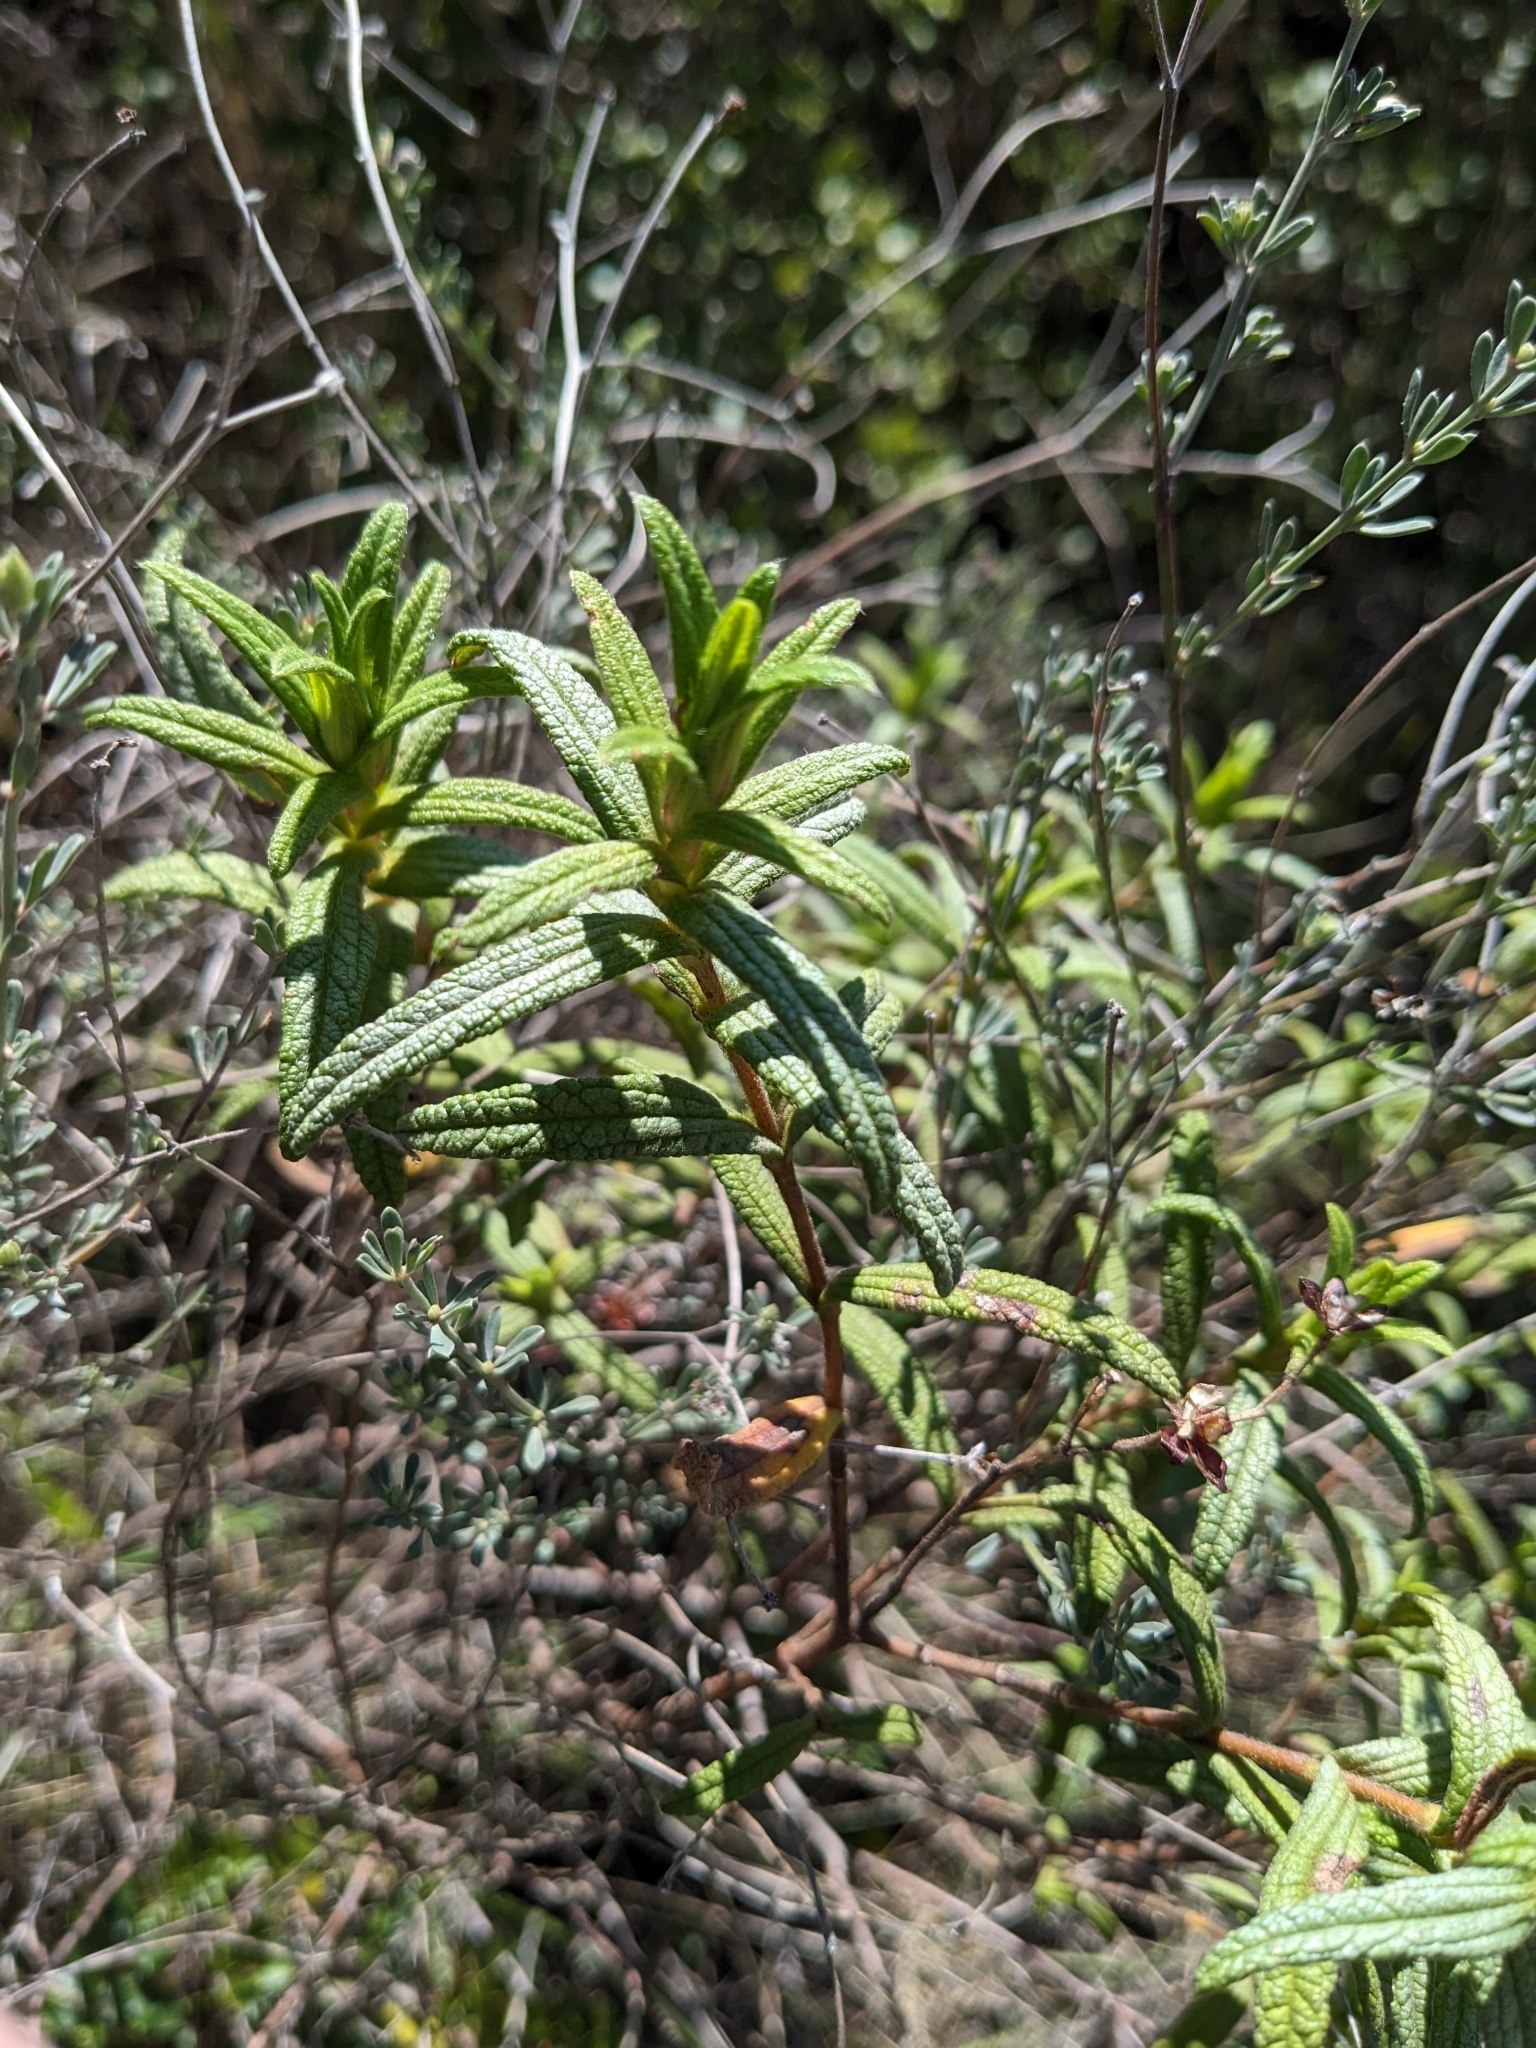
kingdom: Plantae
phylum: Tracheophyta
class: Magnoliopsida
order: Malvales
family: Cistaceae
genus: Cistus
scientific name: Cistus monspeliensis
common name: Montpelier cistus
